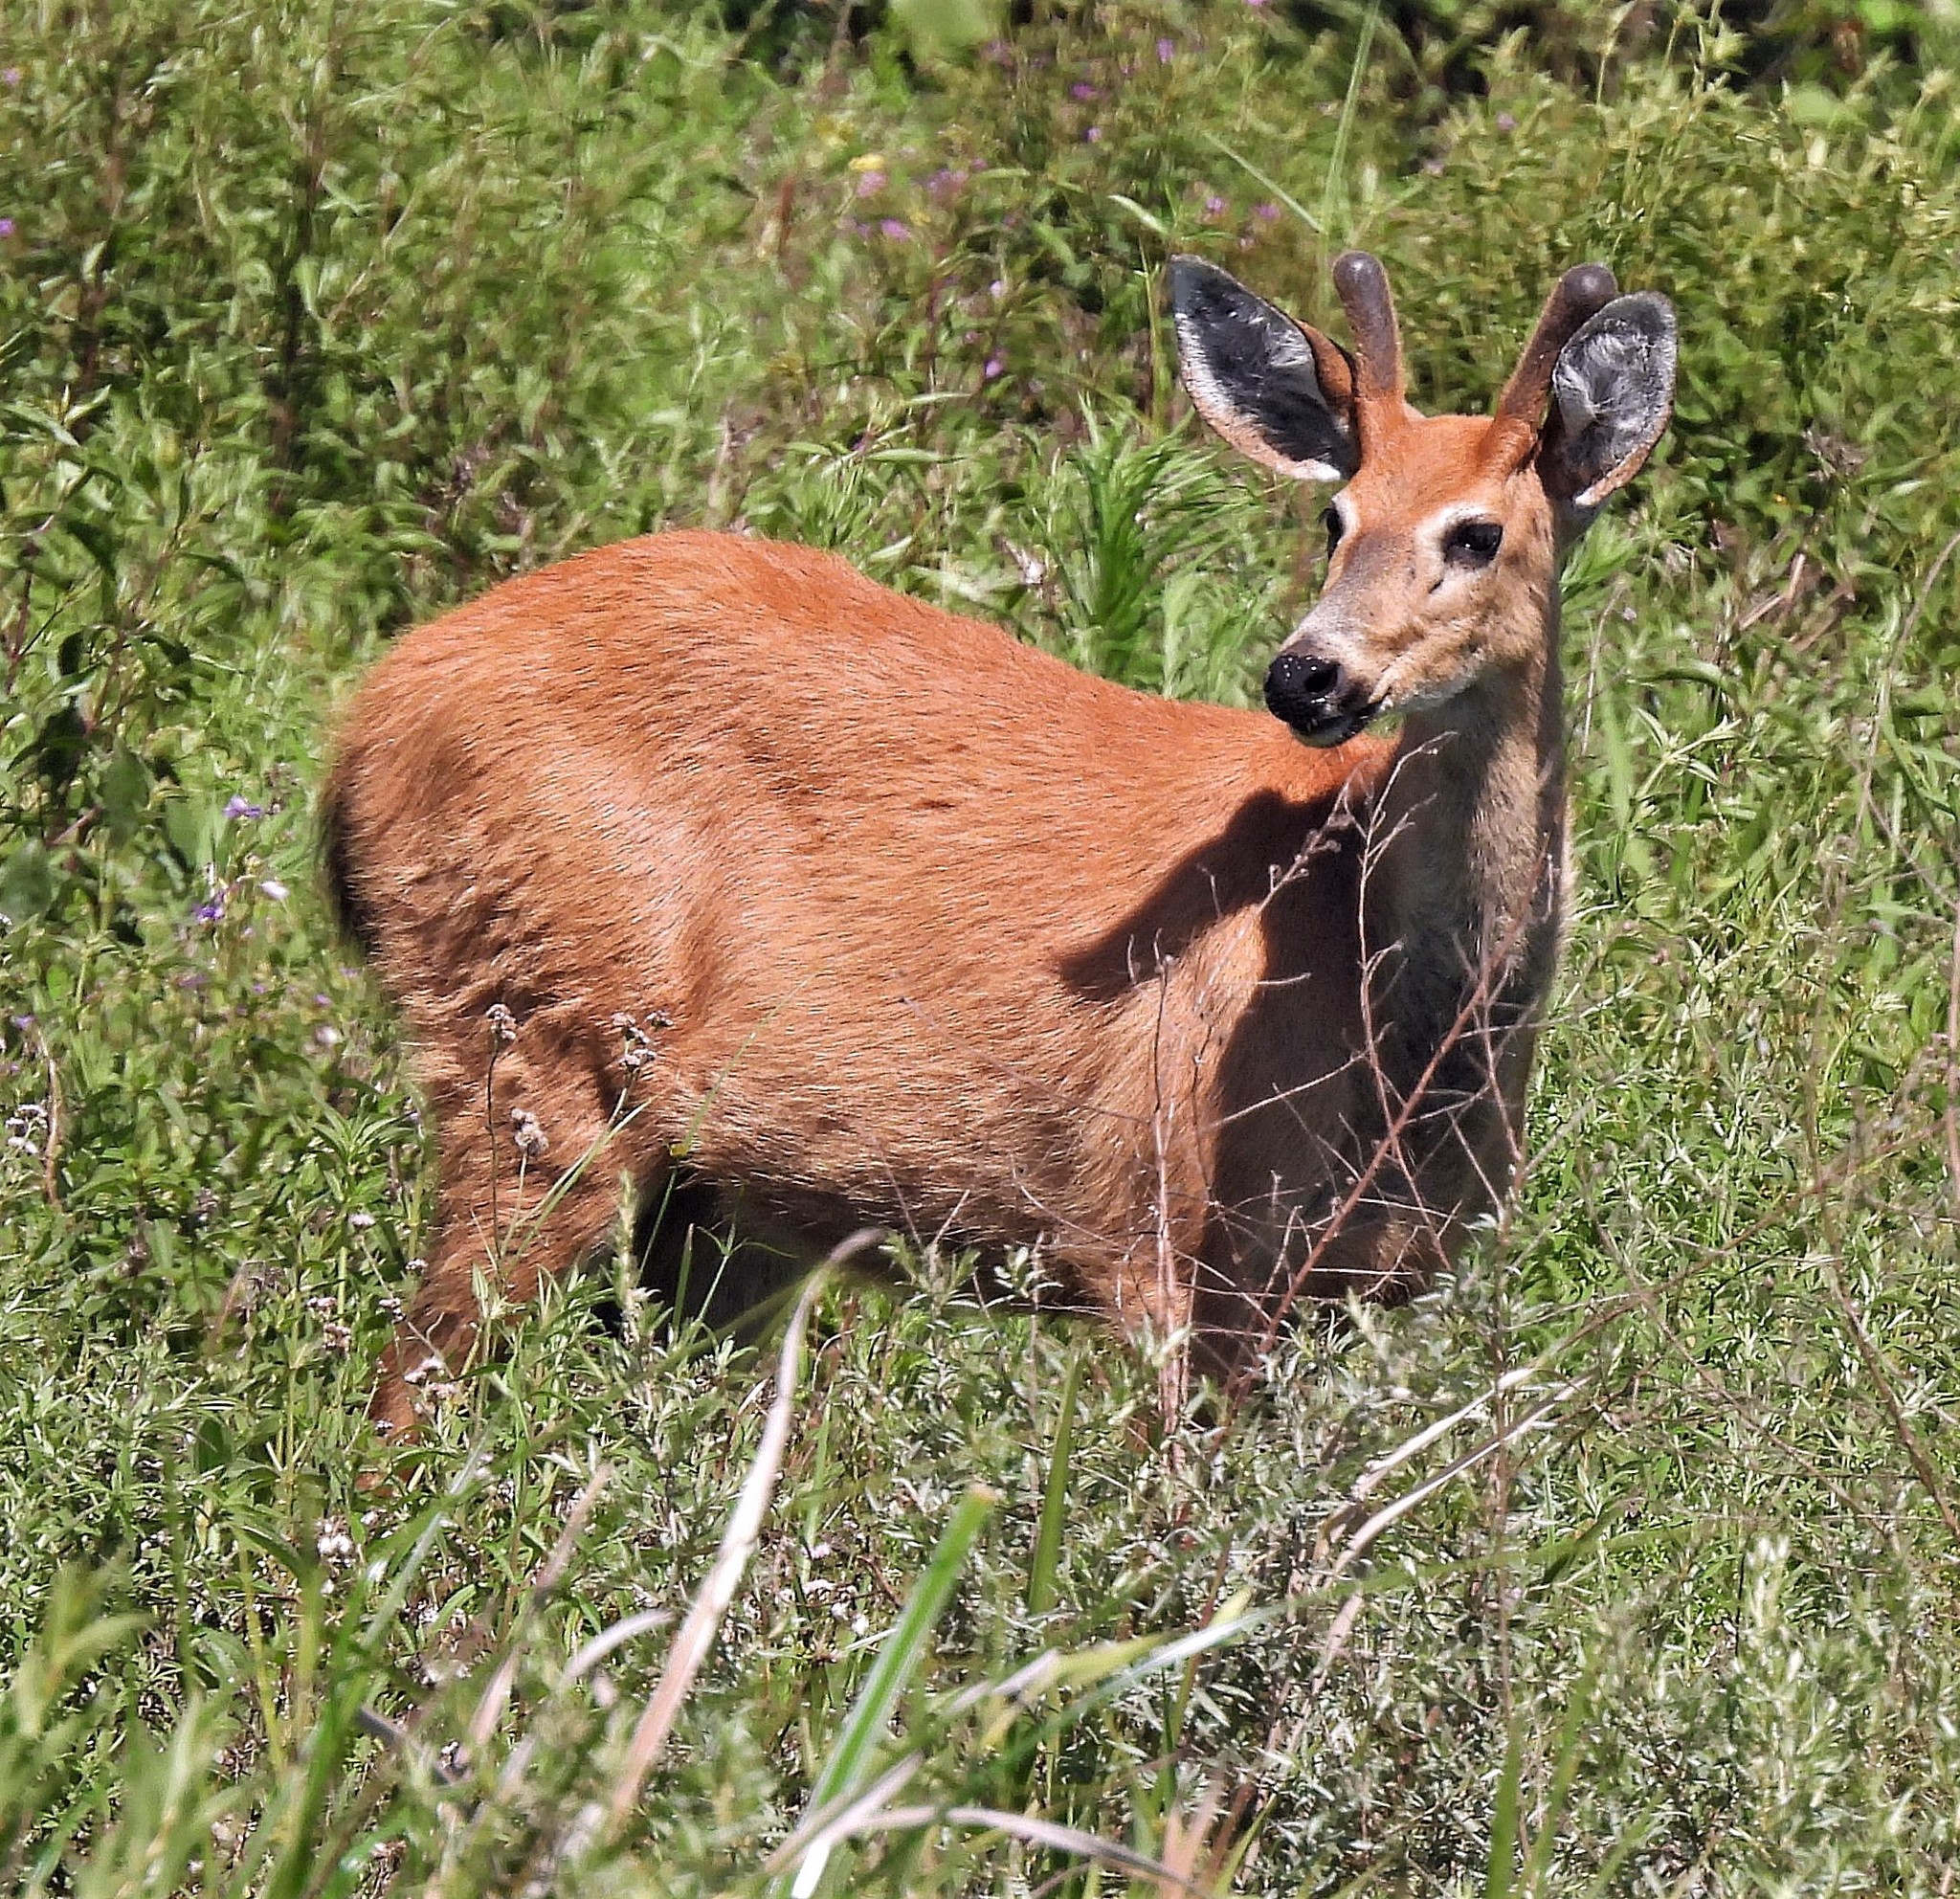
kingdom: Animalia
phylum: Chordata
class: Mammalia
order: Artiodactyla
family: Cervidae
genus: Blastocerus
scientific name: Blastocerus dichotomus
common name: Marsh deer
